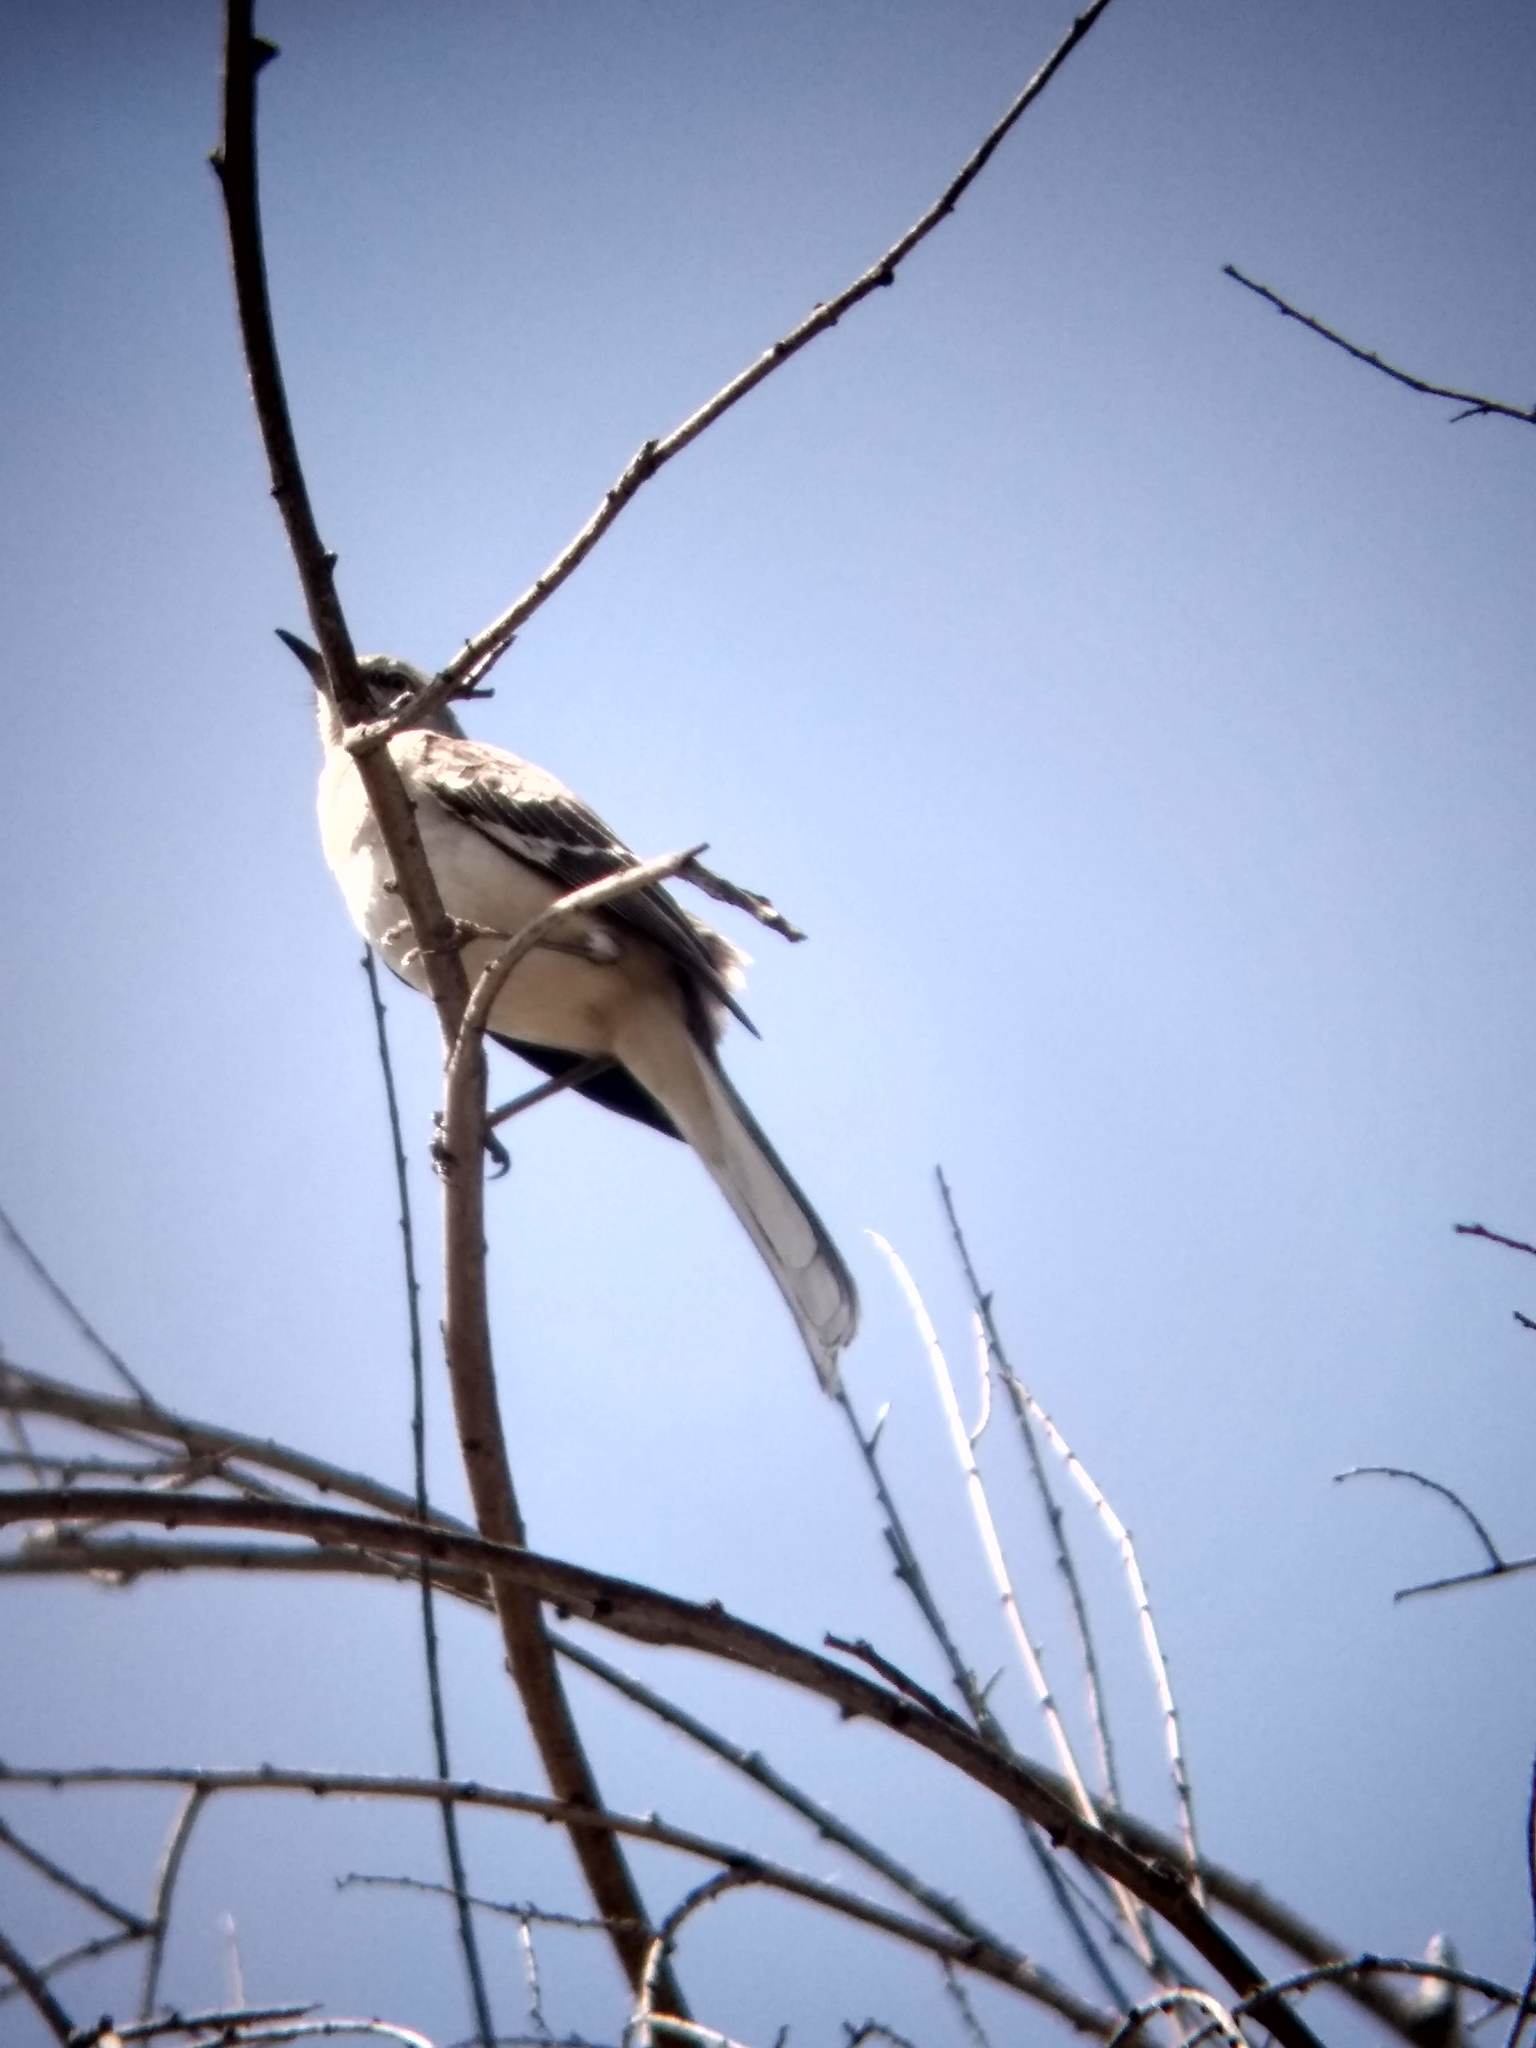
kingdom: Animalia
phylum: Chordata
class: Aves
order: Passeriformes
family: Mimidae
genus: Mimus
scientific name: Mimus polyglottos
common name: Northern mockingbird
